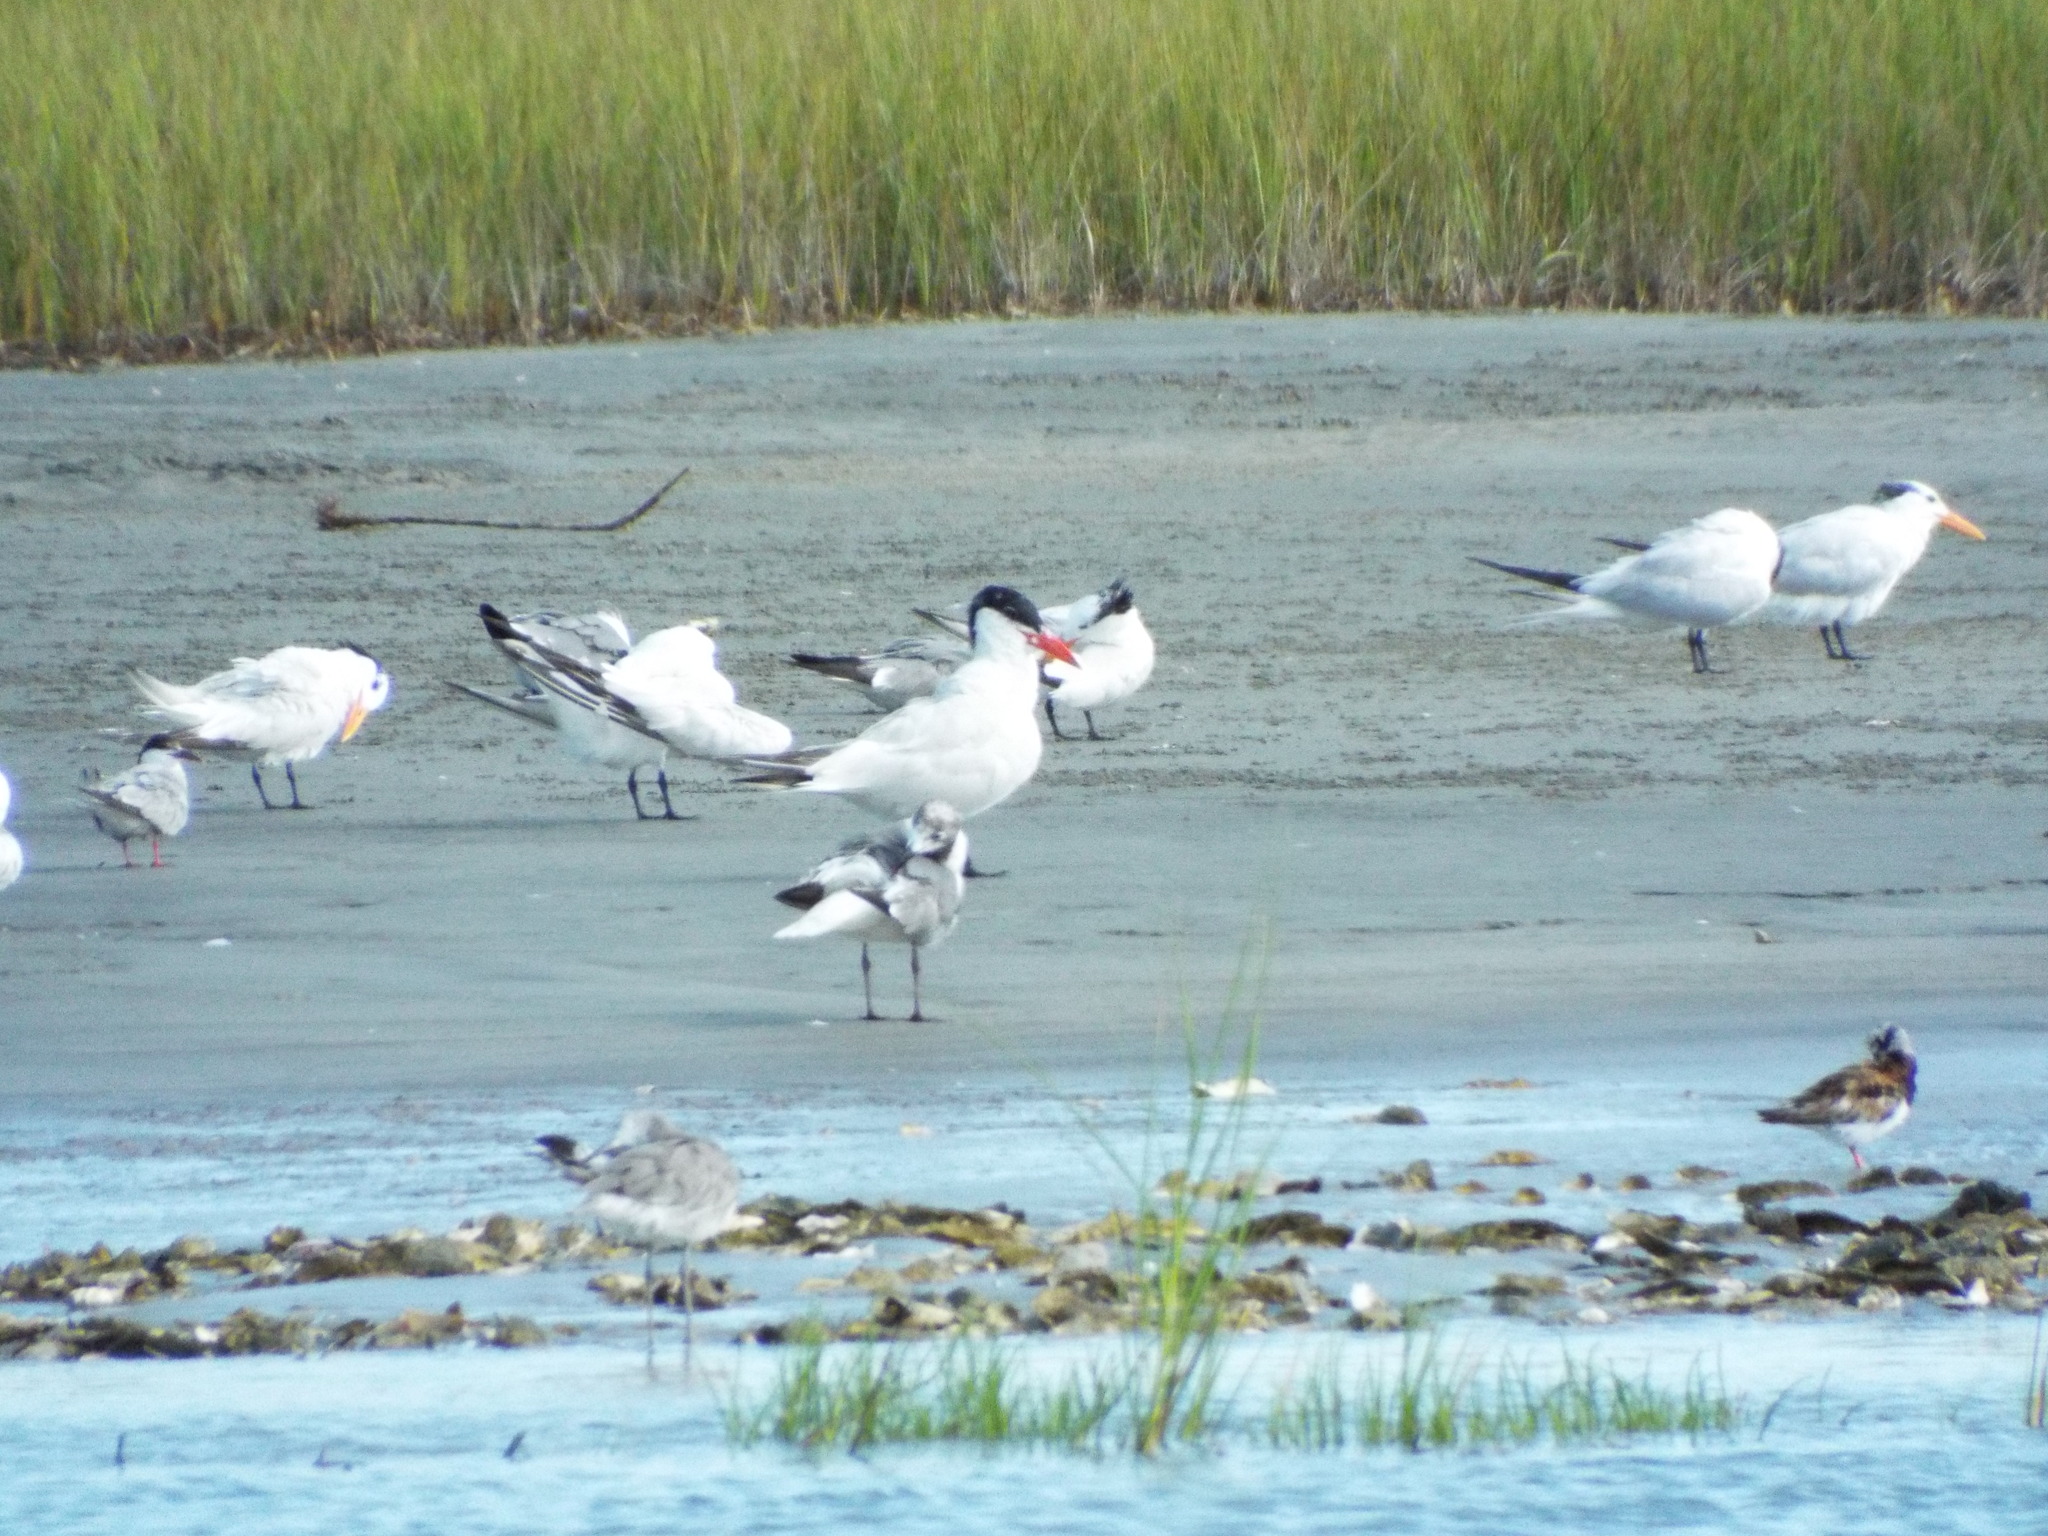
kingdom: Animalia
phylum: Chordata
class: Aves
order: Charadriiformes
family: Laridae
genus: Hydroprogne
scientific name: Hydroprogne caspia
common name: Caspian tern
